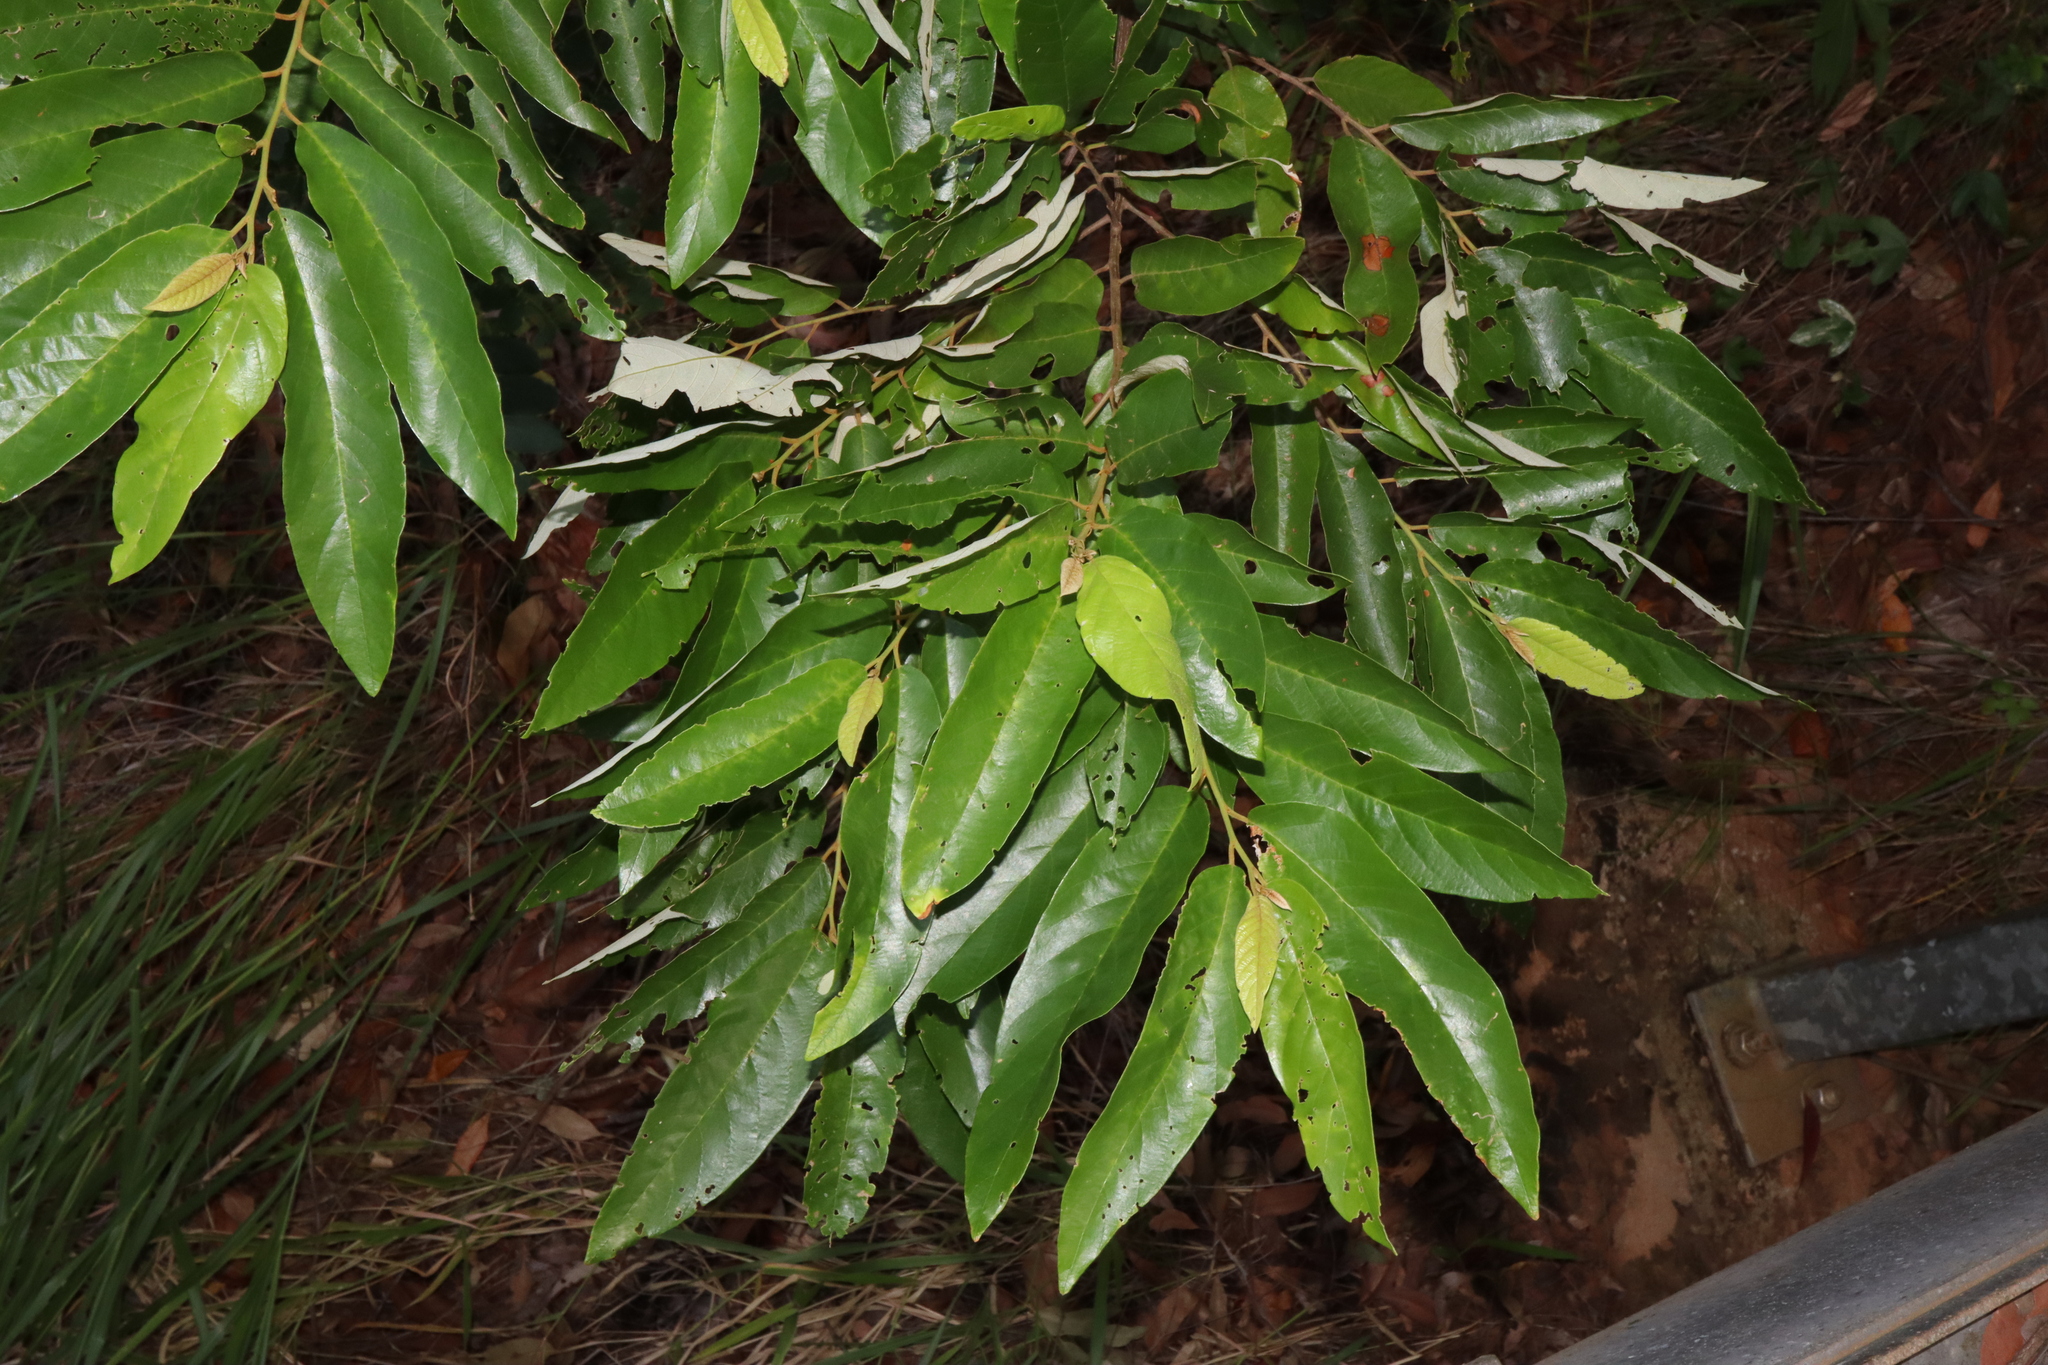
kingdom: Plantae
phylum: Tracheophyta
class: Magnoliopsida
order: Rosales
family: Rhamnaceae
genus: Alphitonia
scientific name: Alphitonia excelsa
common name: Red ash
